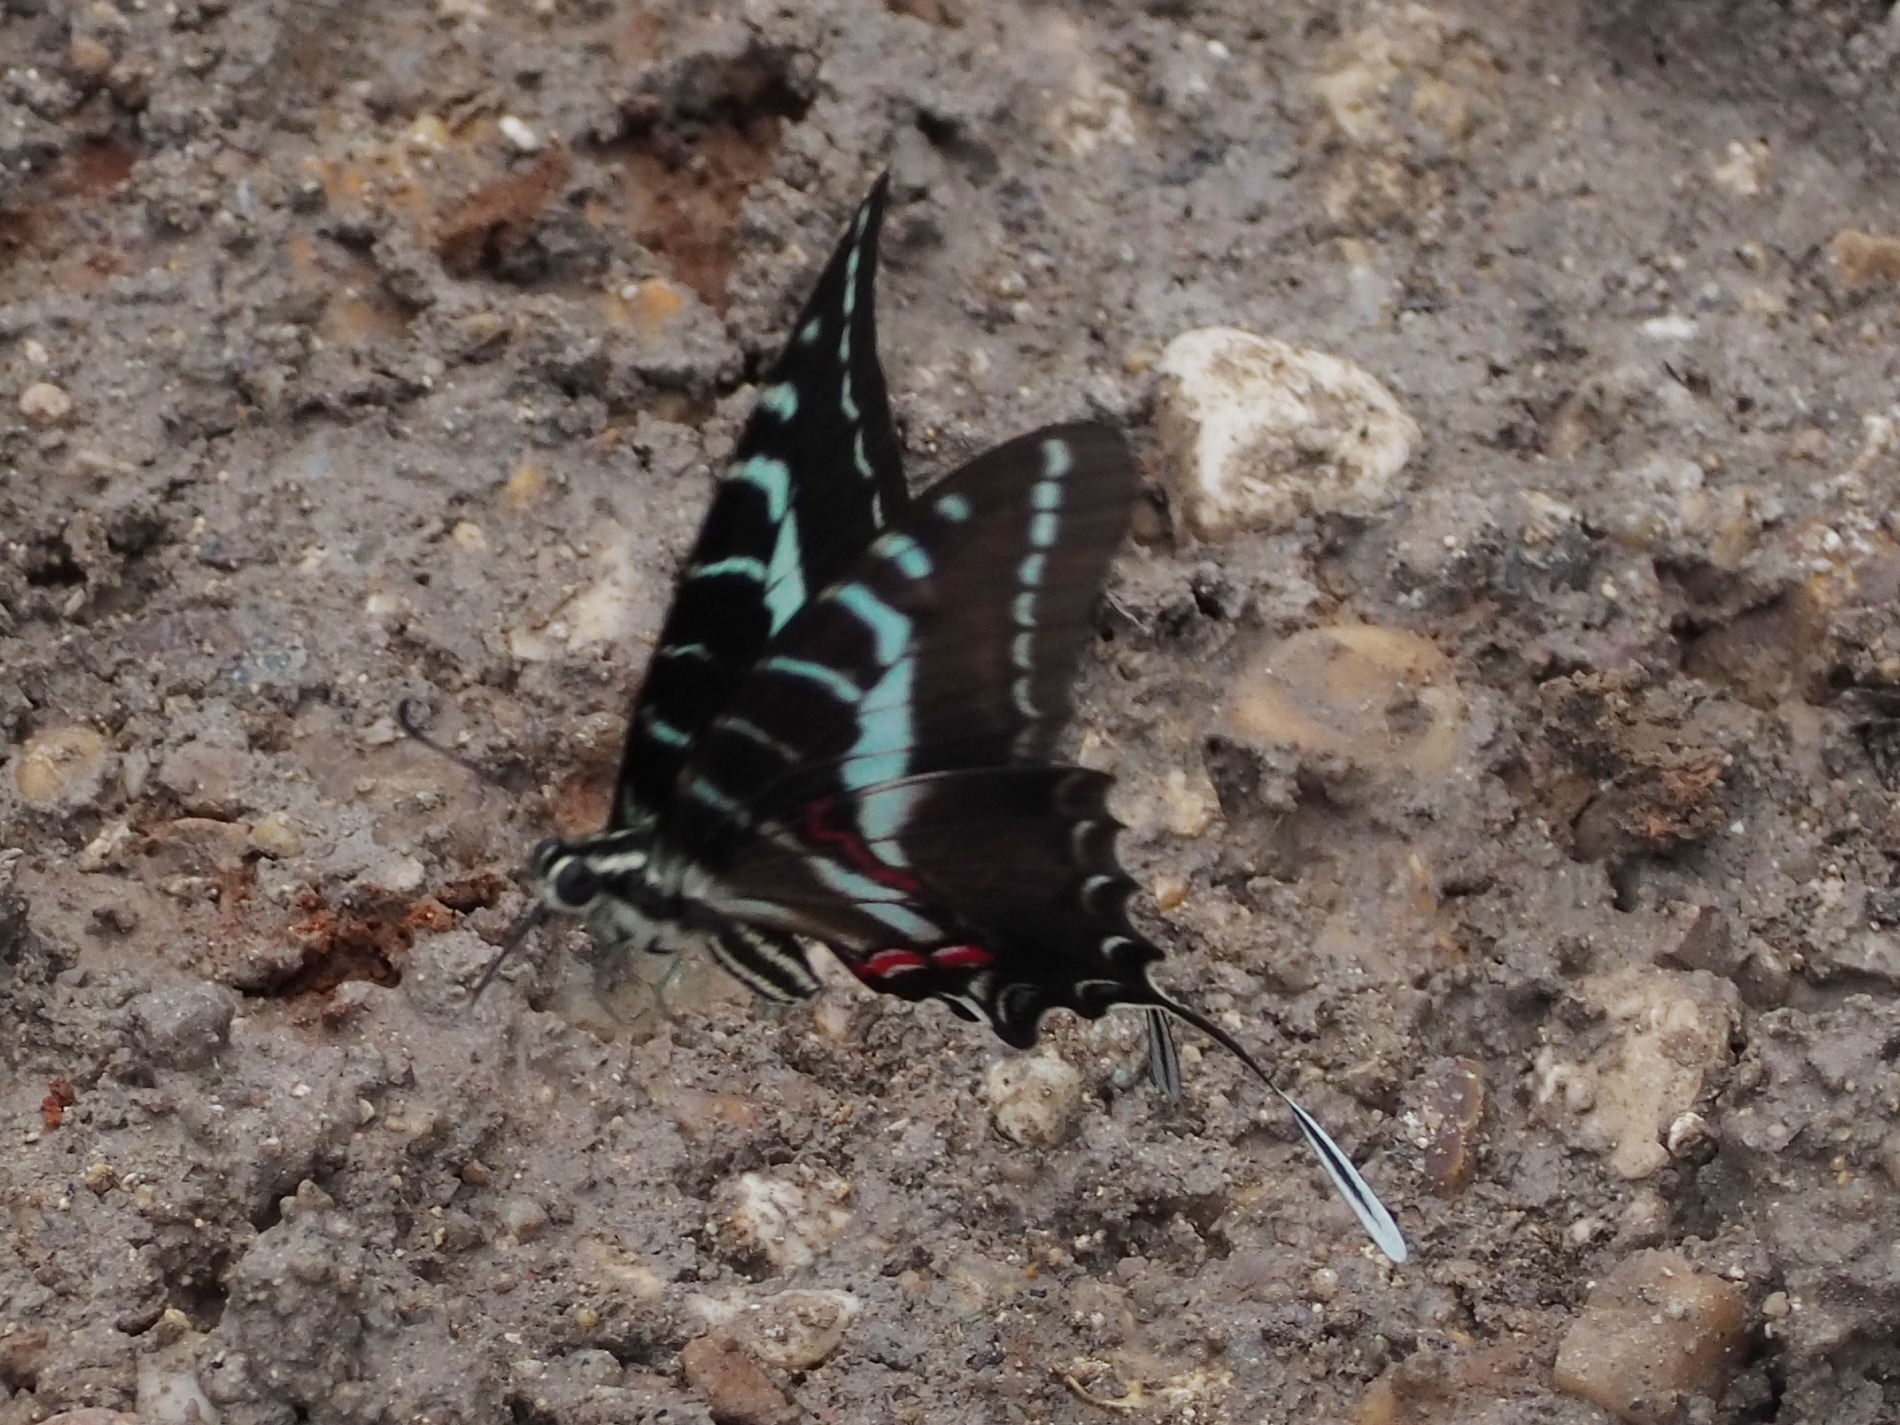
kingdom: Animalia
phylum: Arthropoda
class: Insecta
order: Lepidoptera
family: Papilionidae
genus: Protographium
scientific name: Protographium philolaus
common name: Dark zebra swallowtail
